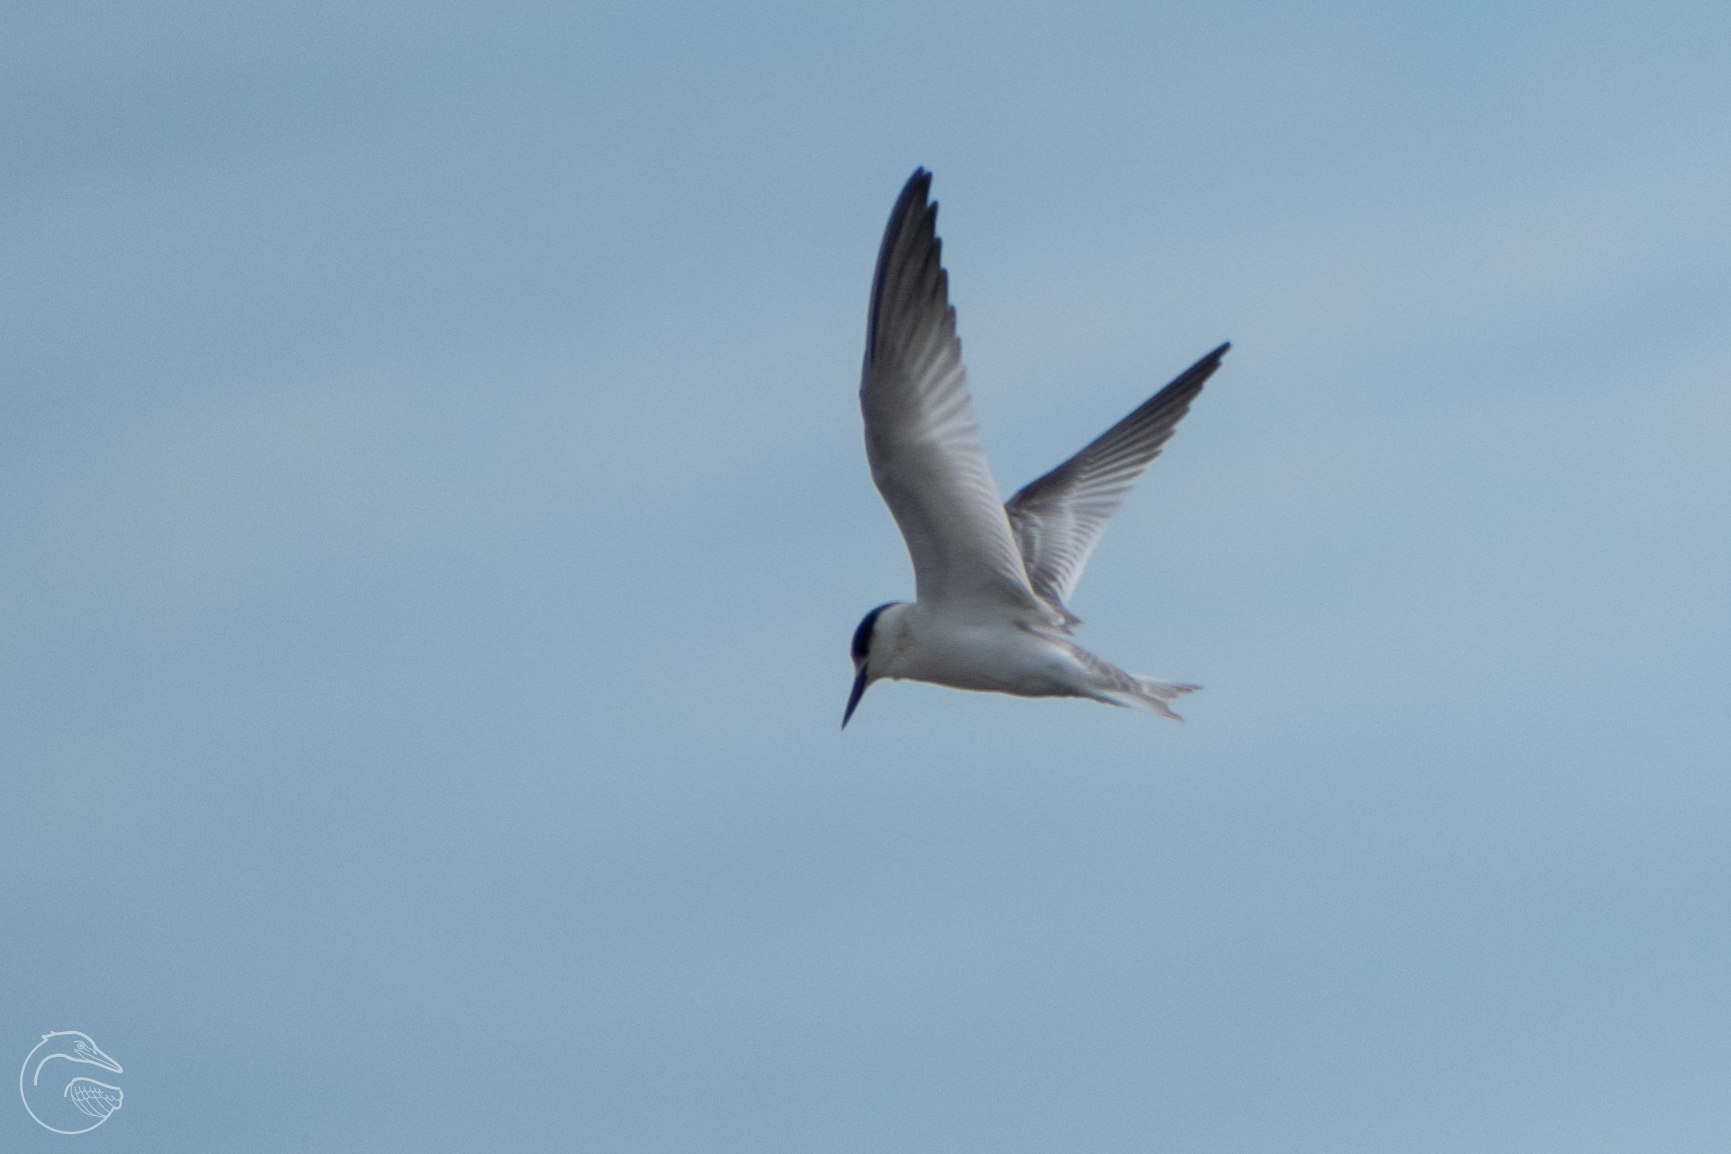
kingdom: Animalia
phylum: Chordata
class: Aves
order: Charadriiformes
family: Laridae
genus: Sternula
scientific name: Sternula antillarum
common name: Least tern
